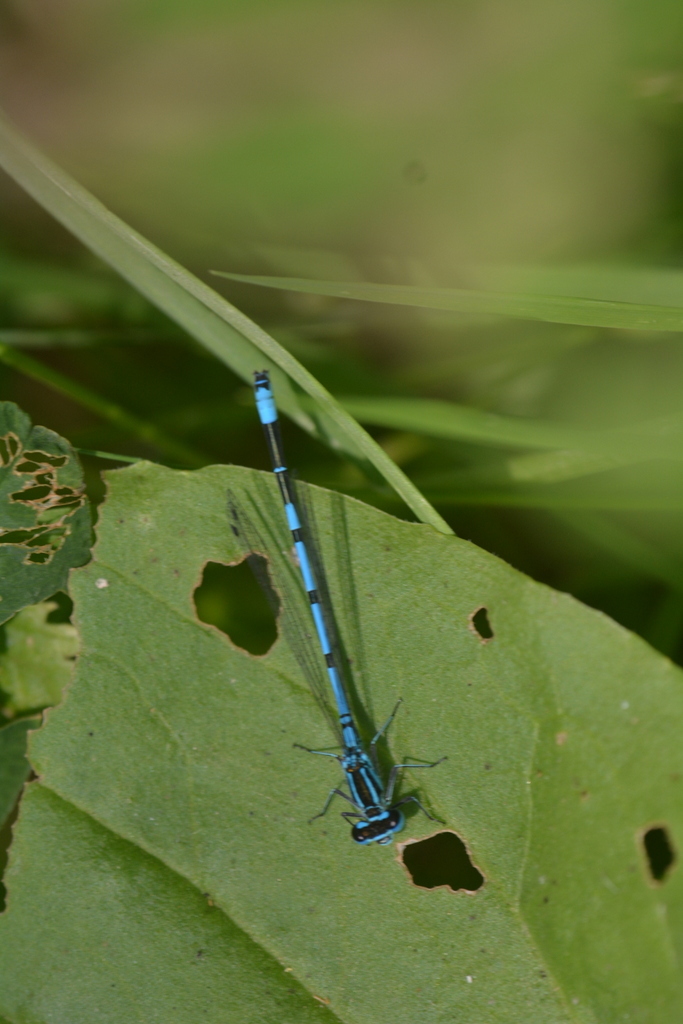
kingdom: Animalia
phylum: Arthropoda
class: Insecta
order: Odonata
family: Coenagrionidae
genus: Coenagrion
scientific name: Coenagrion puella
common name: Azure damselfly
